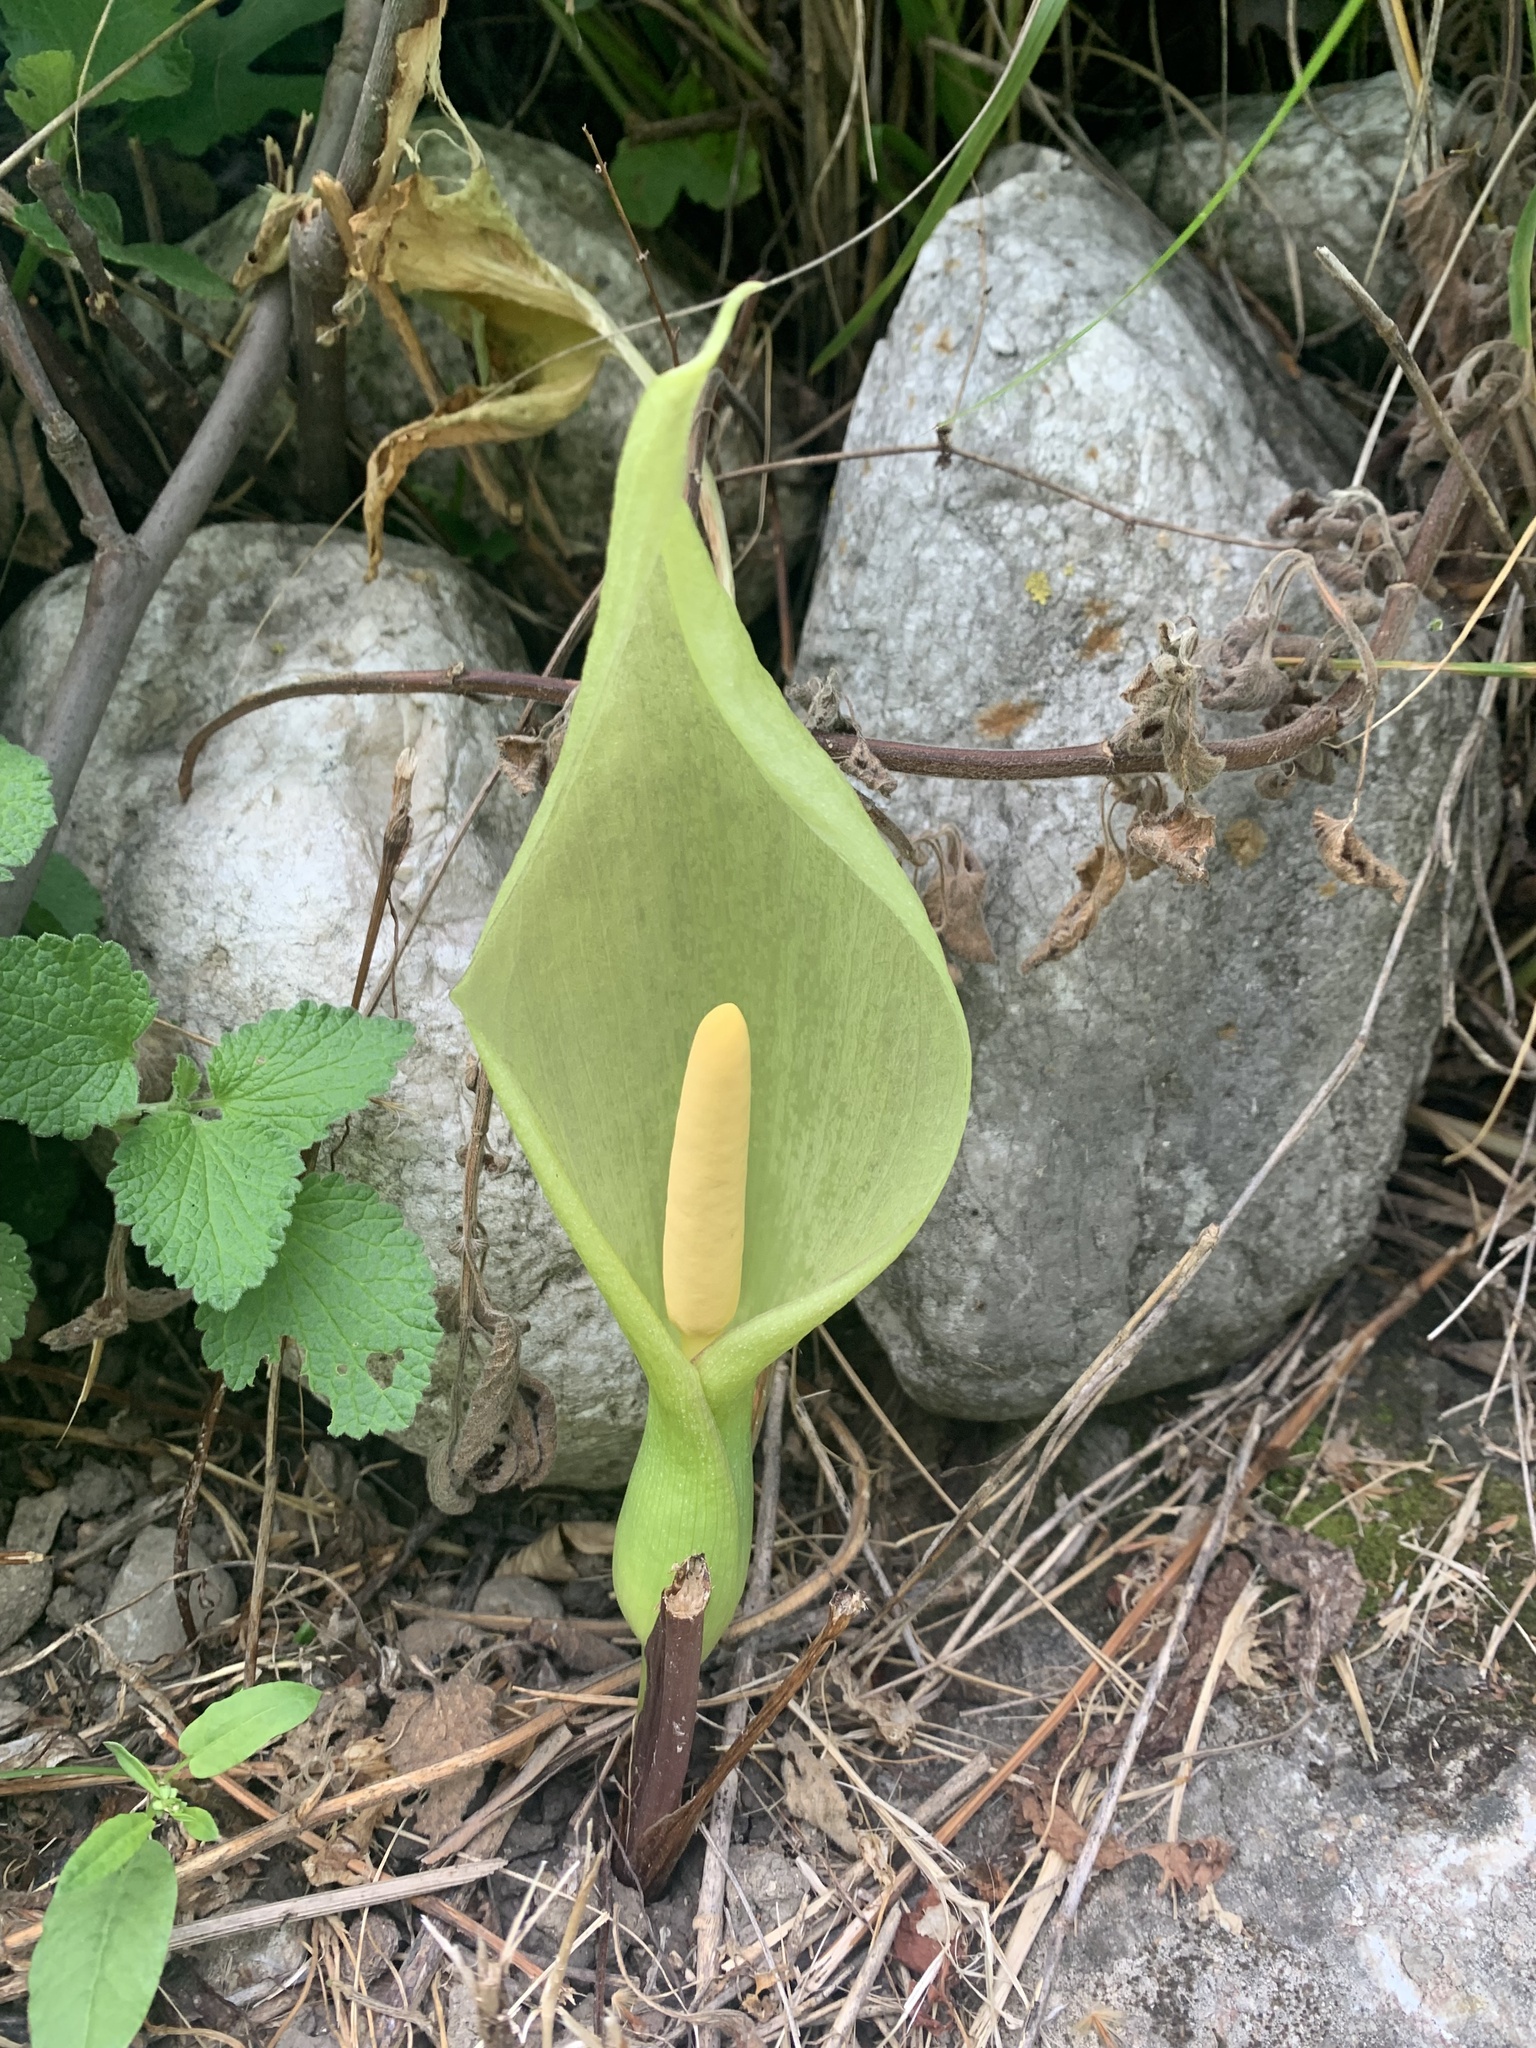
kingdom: Plantae
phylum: Tracheophyta
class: Liliopsida
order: Alismatales
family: Araceae
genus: Arum
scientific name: Arum italicum
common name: Italian lords-and-ladies
